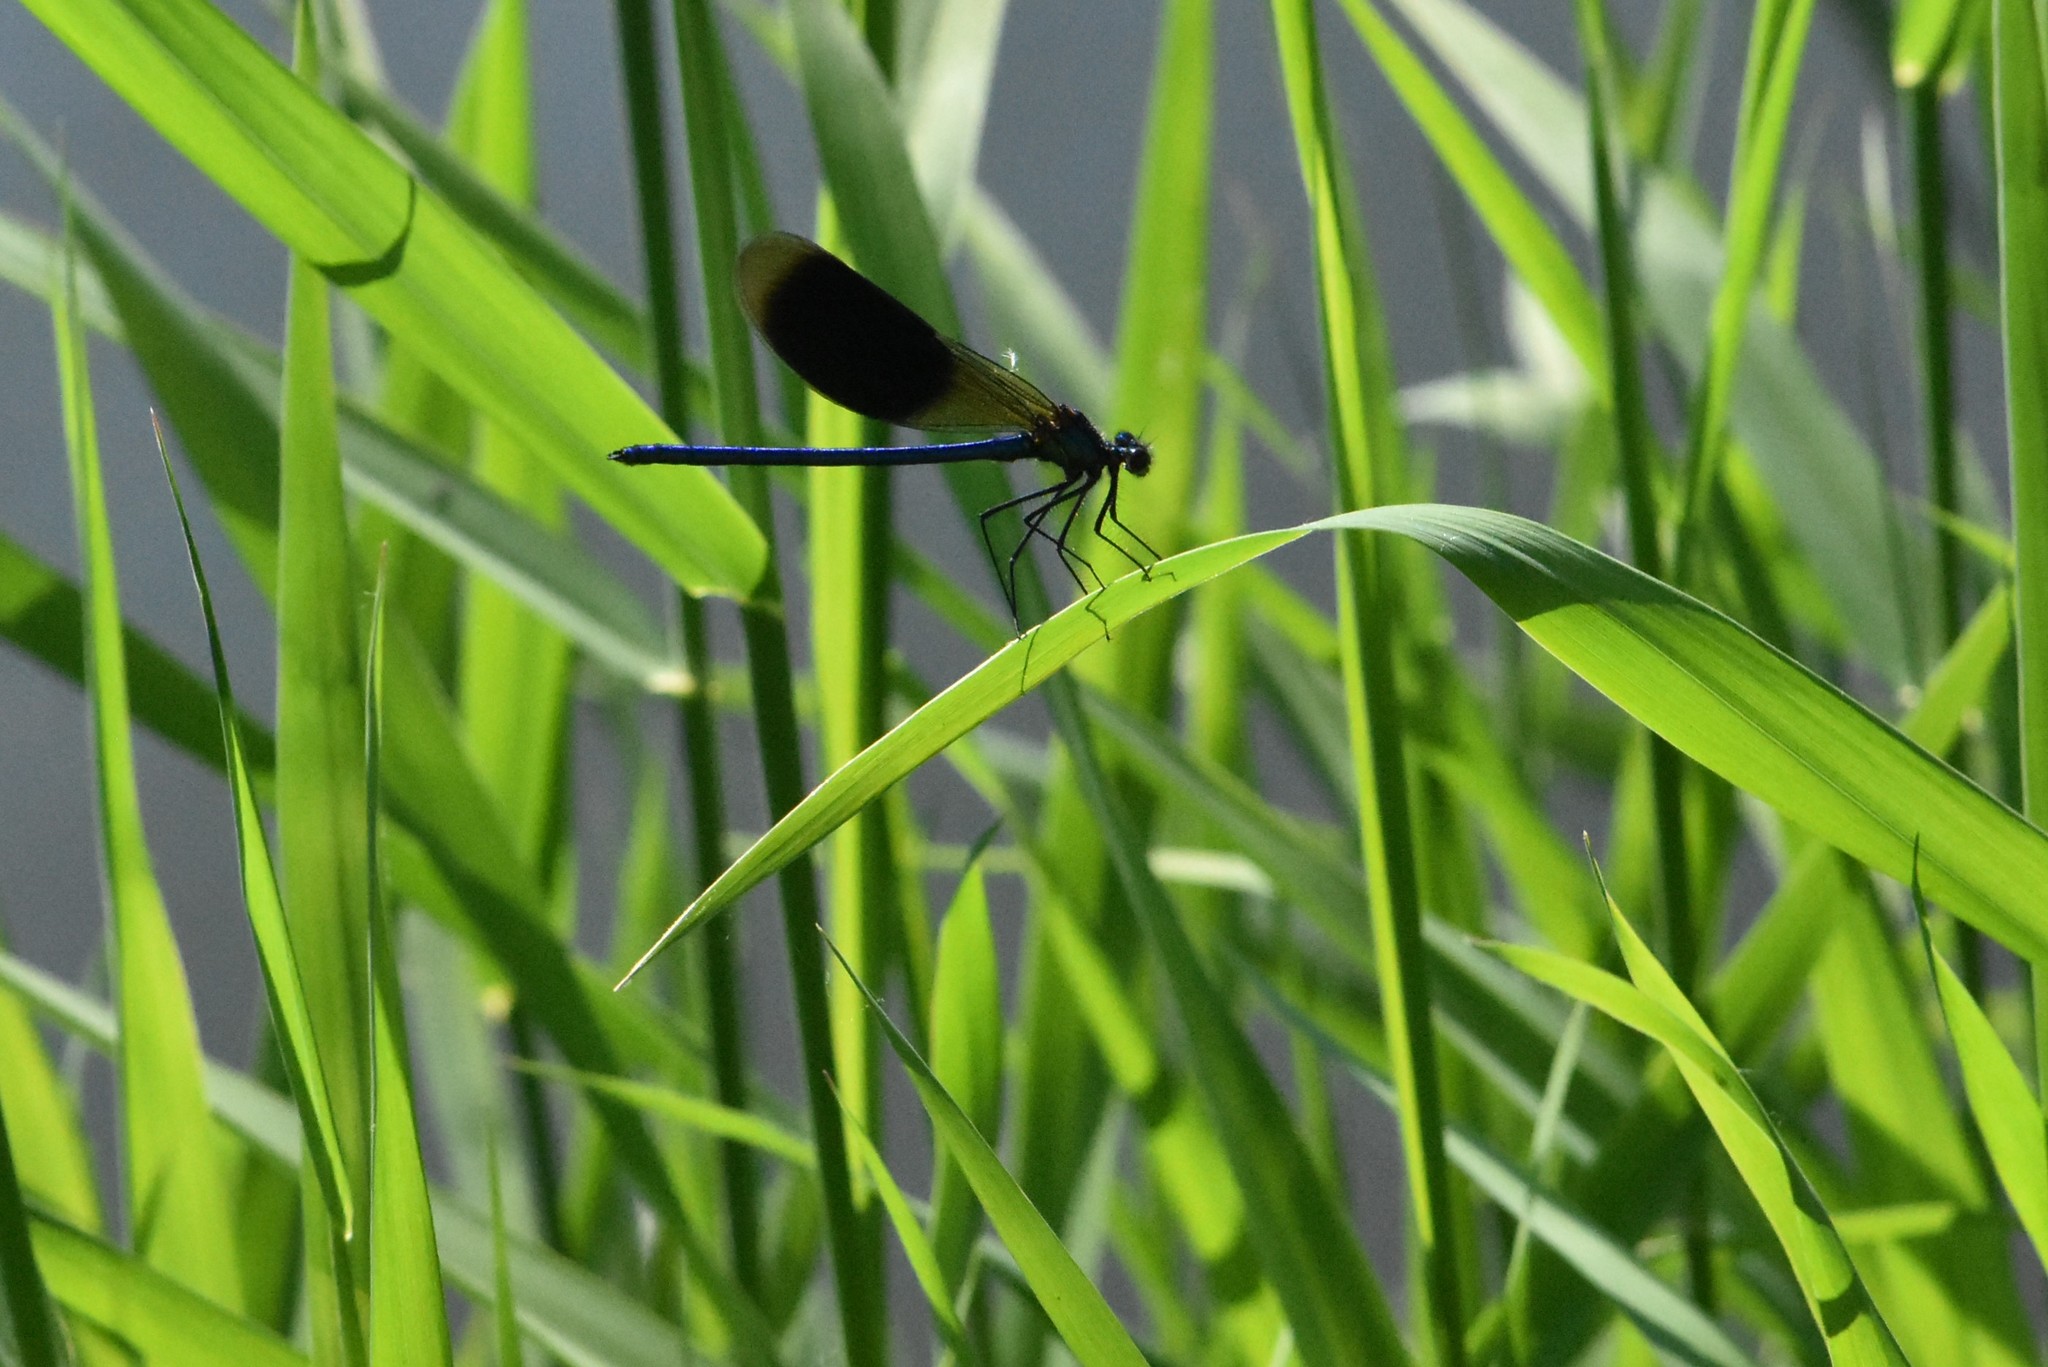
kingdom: Animalia
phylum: Arthropoda
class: Insecta
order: Odonata
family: Calopterygidae
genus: Calopteryx
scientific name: Calopteryx splendens
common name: Banded demoiselle
